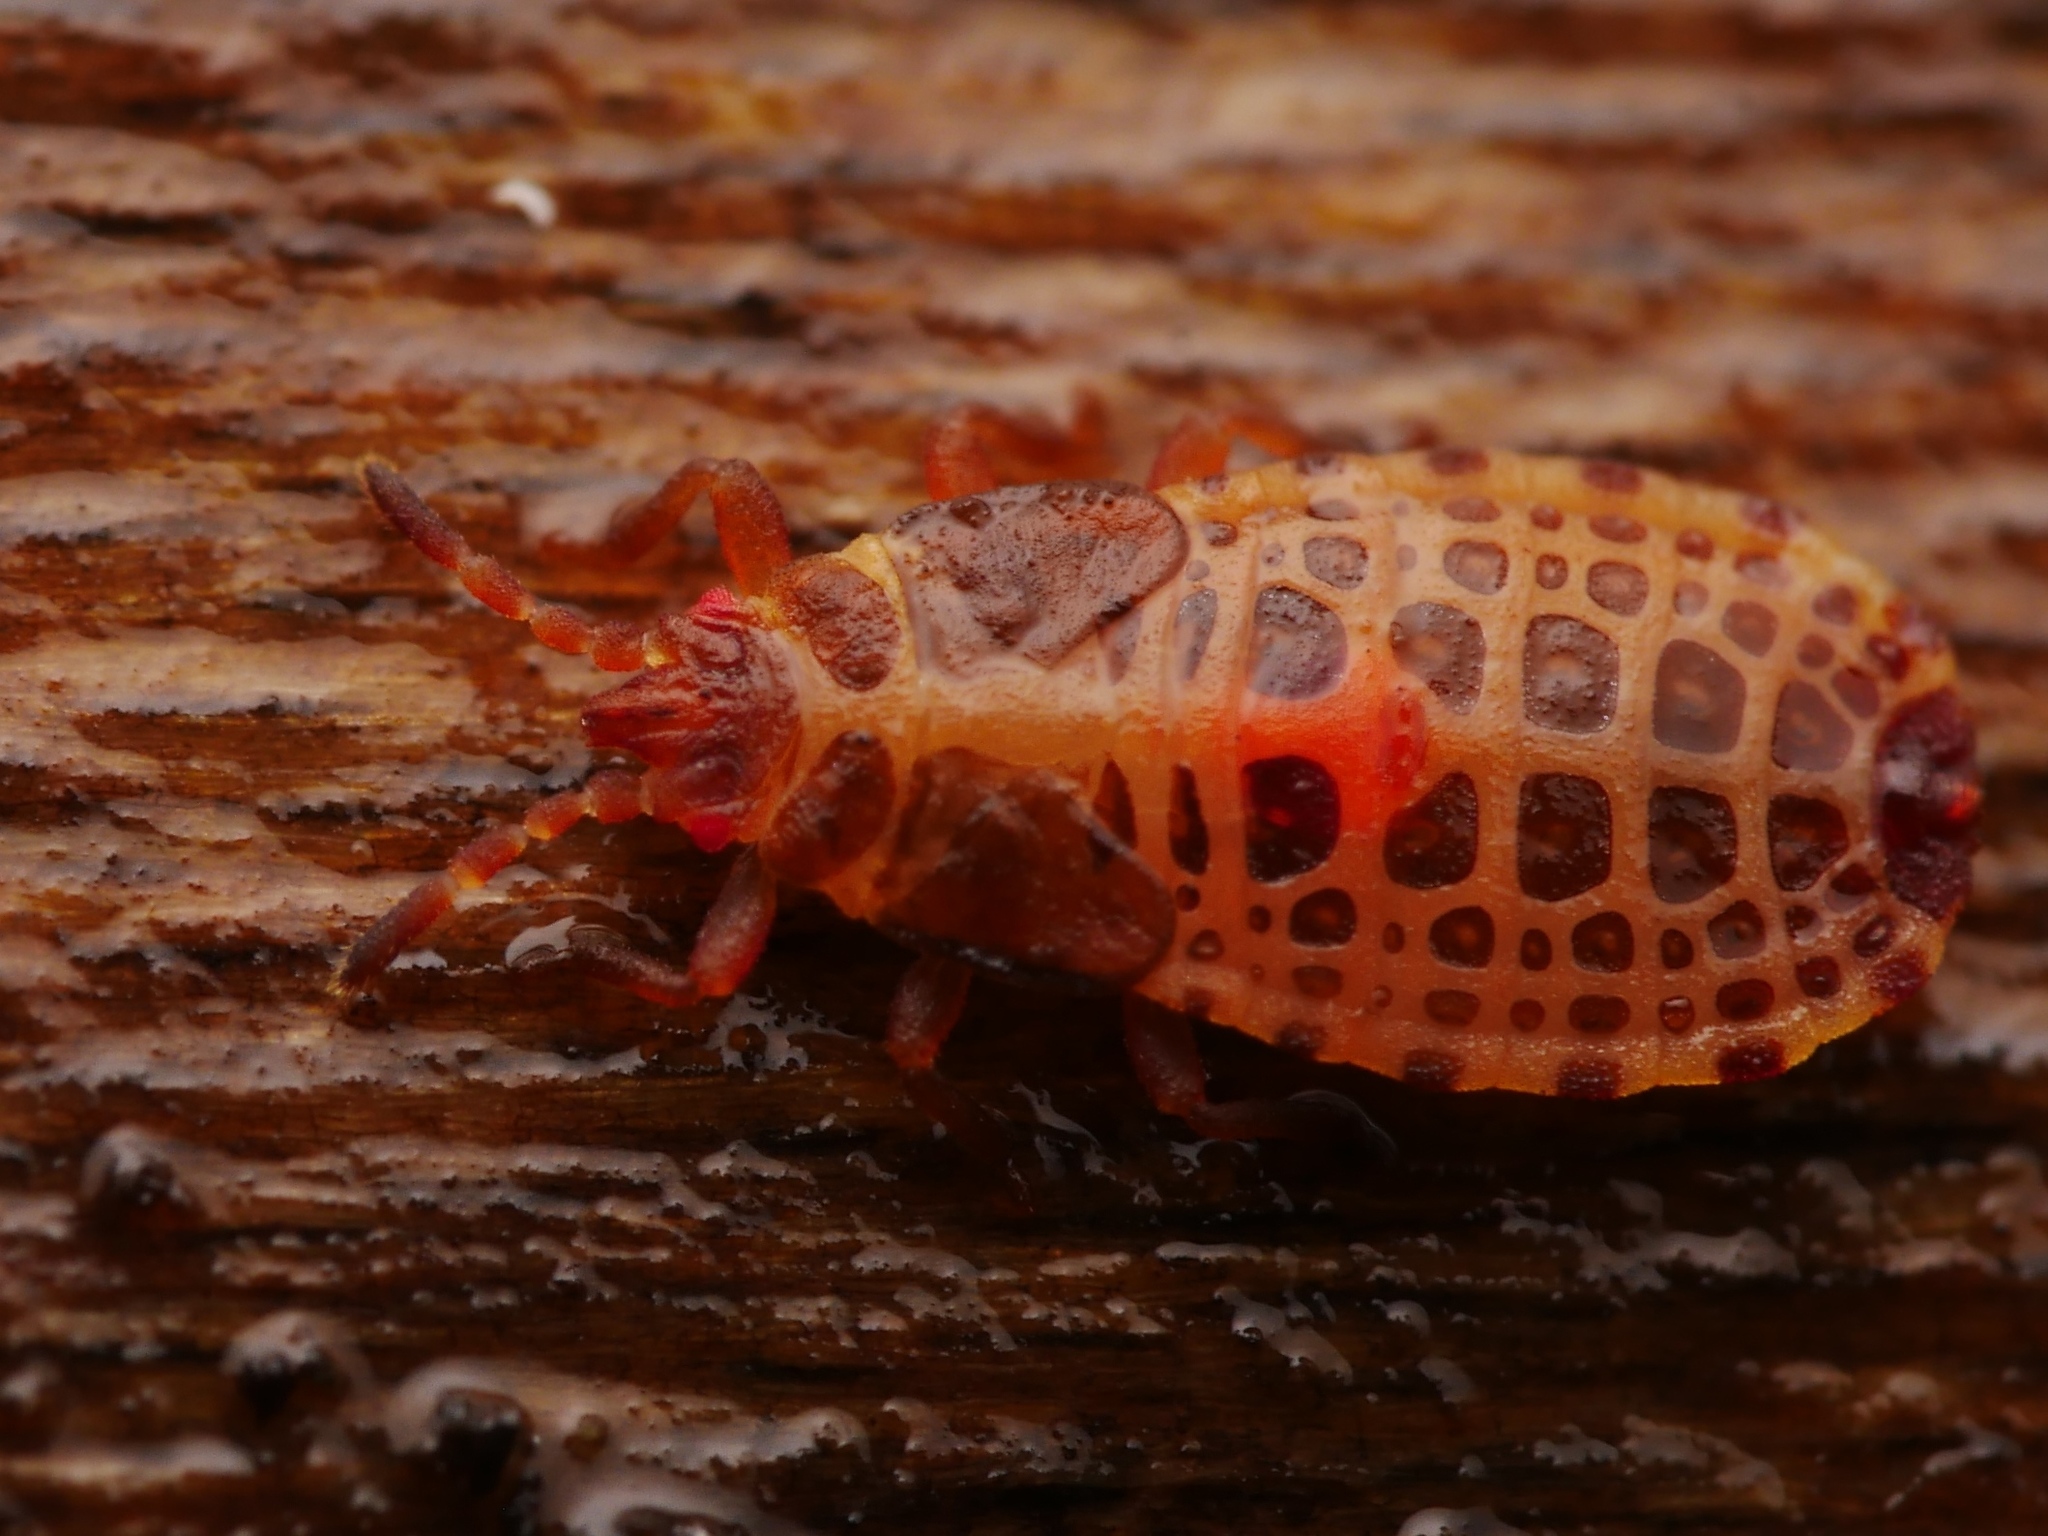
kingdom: Animalia
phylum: Arthropoda
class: Insecta
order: Hemiptera
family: Aradidae
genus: Aneurus
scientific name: Aneurus laevis
